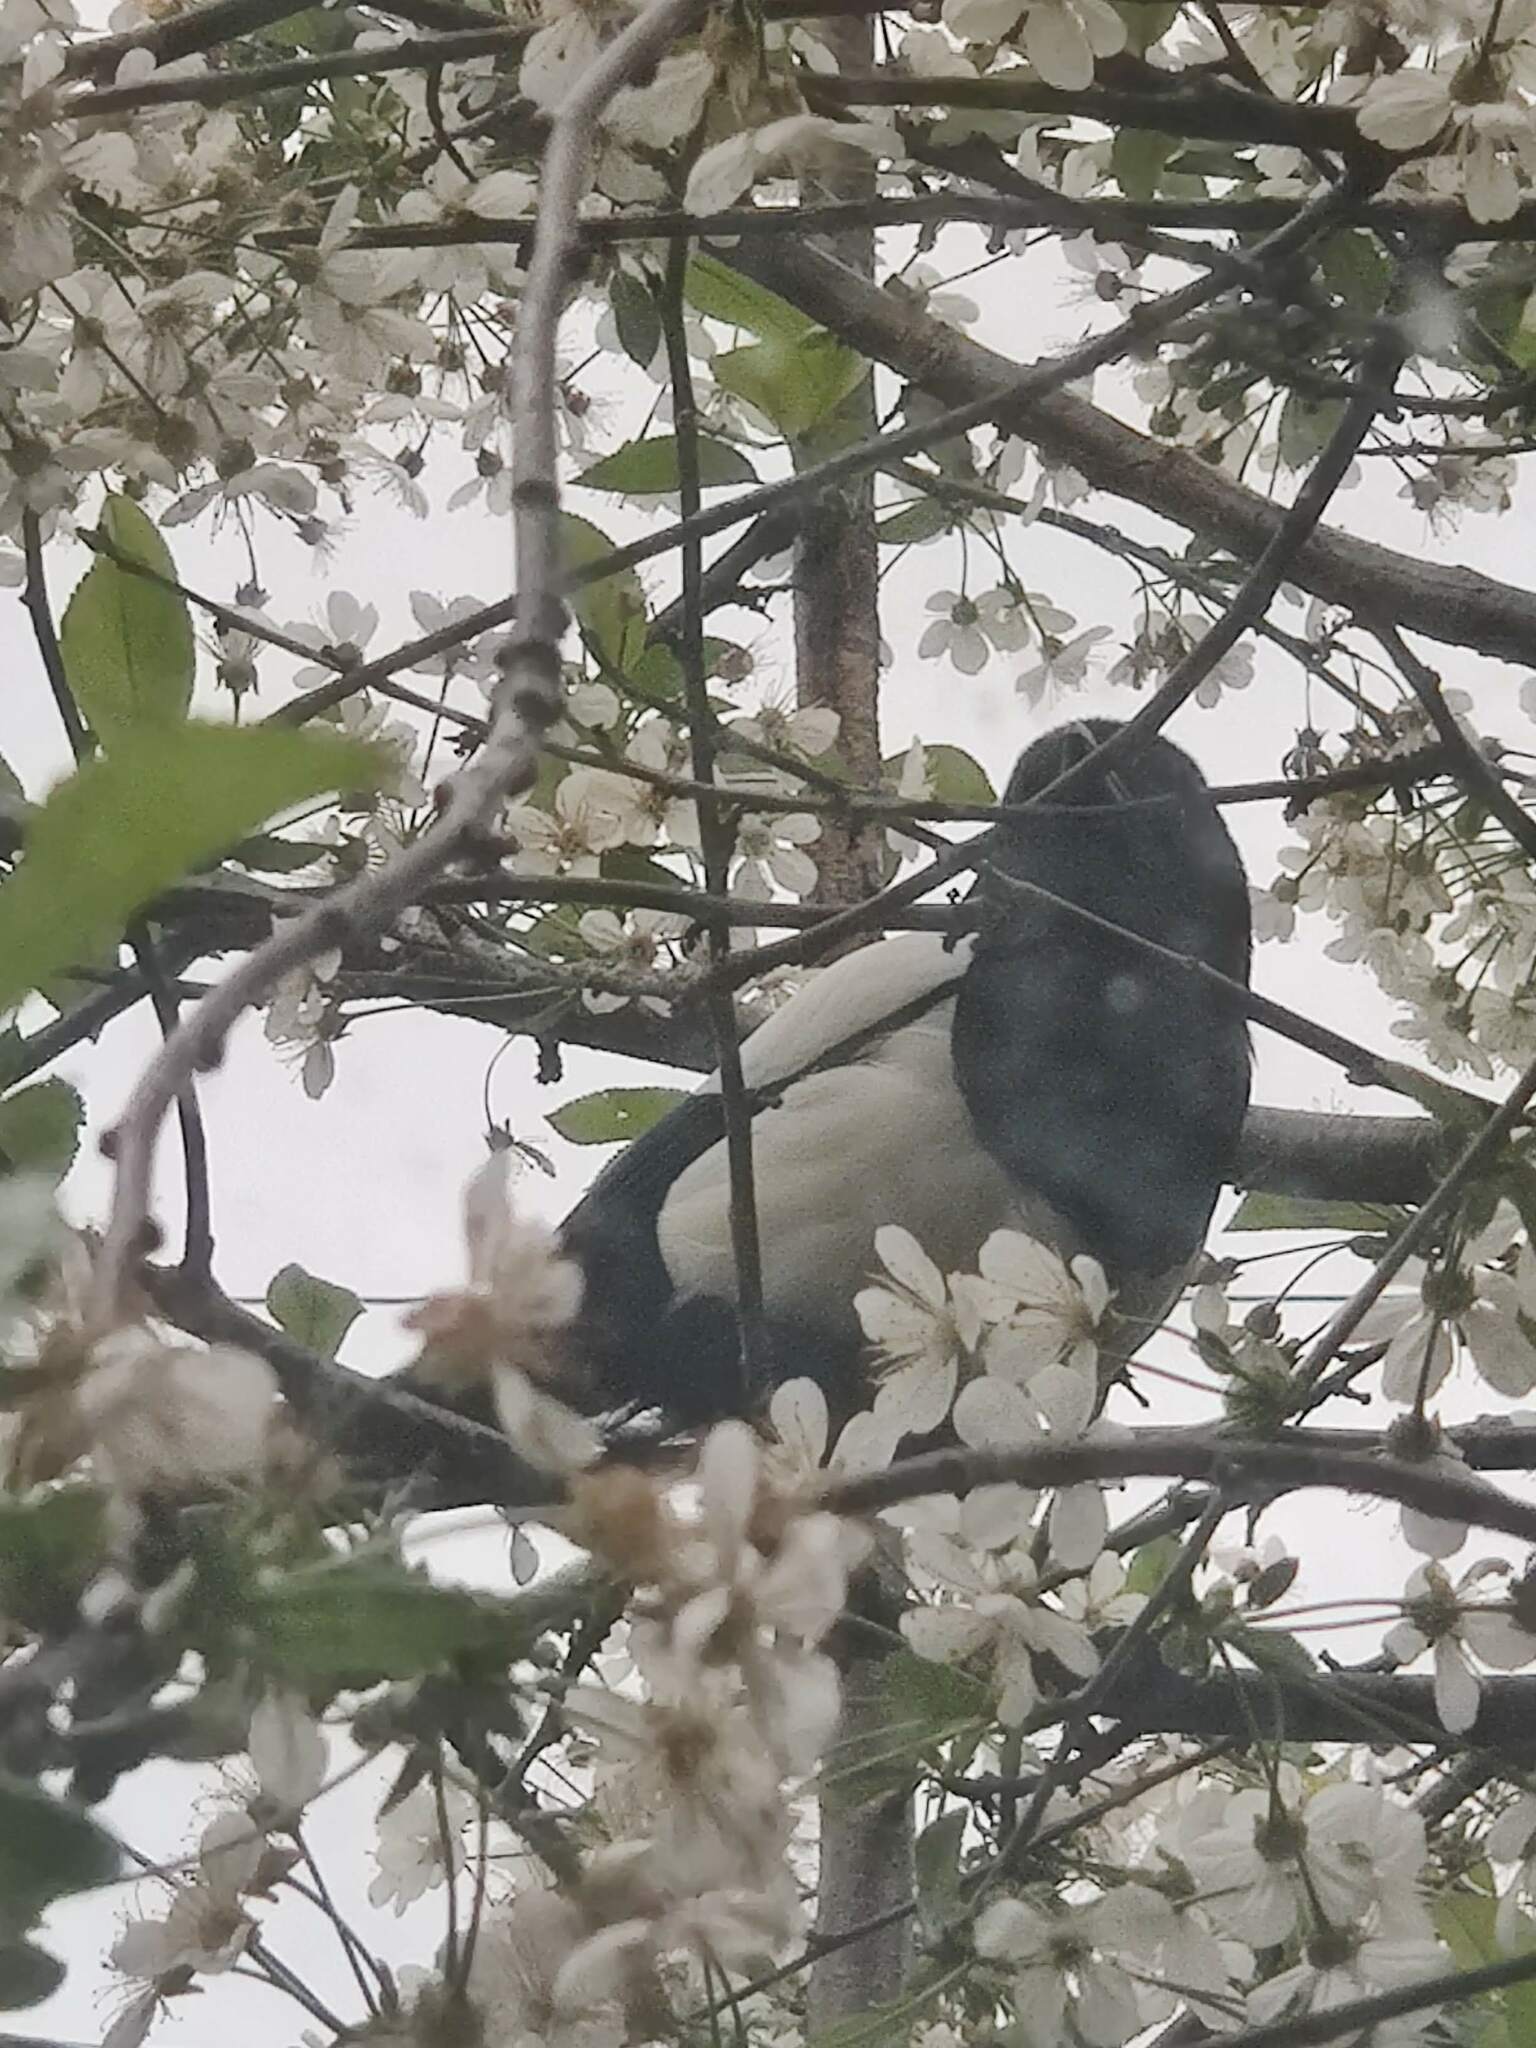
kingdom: Animalia
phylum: Chordata
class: Aves
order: Passeriformes
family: Corvidae
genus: Pica
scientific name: Pica pica
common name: Eurasian magpie
